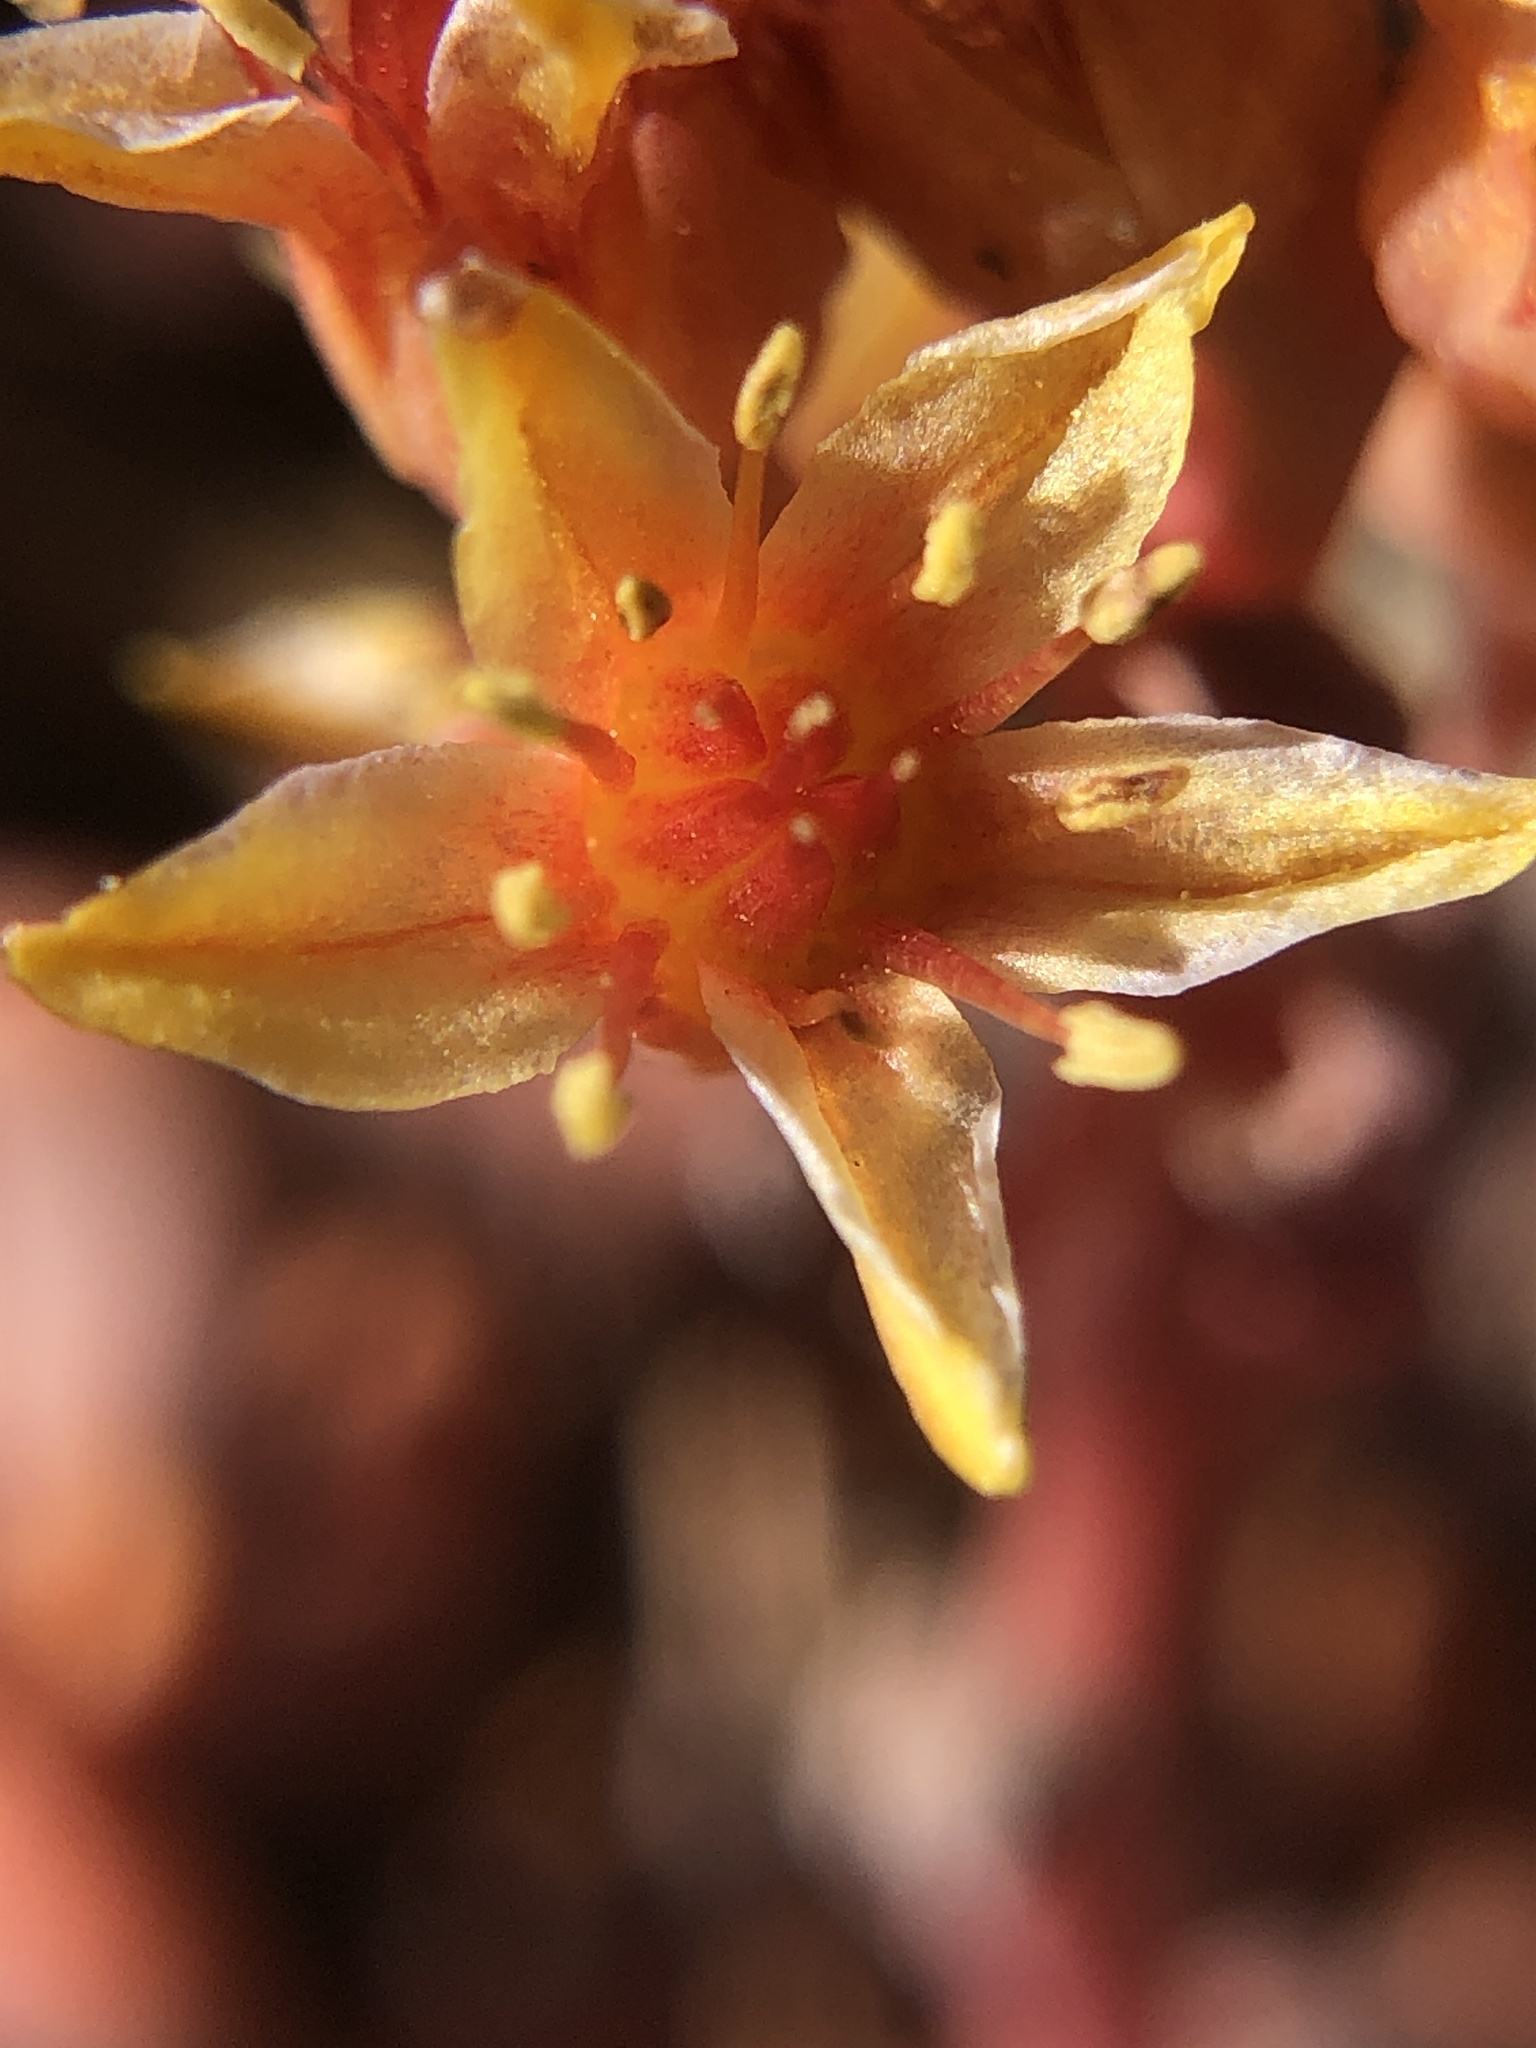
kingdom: Plantae
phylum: Tracheophyta
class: Magnoliopsida
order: Saxifragales
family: Crassulaceae
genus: Sedum
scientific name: Sedum obtusatum
